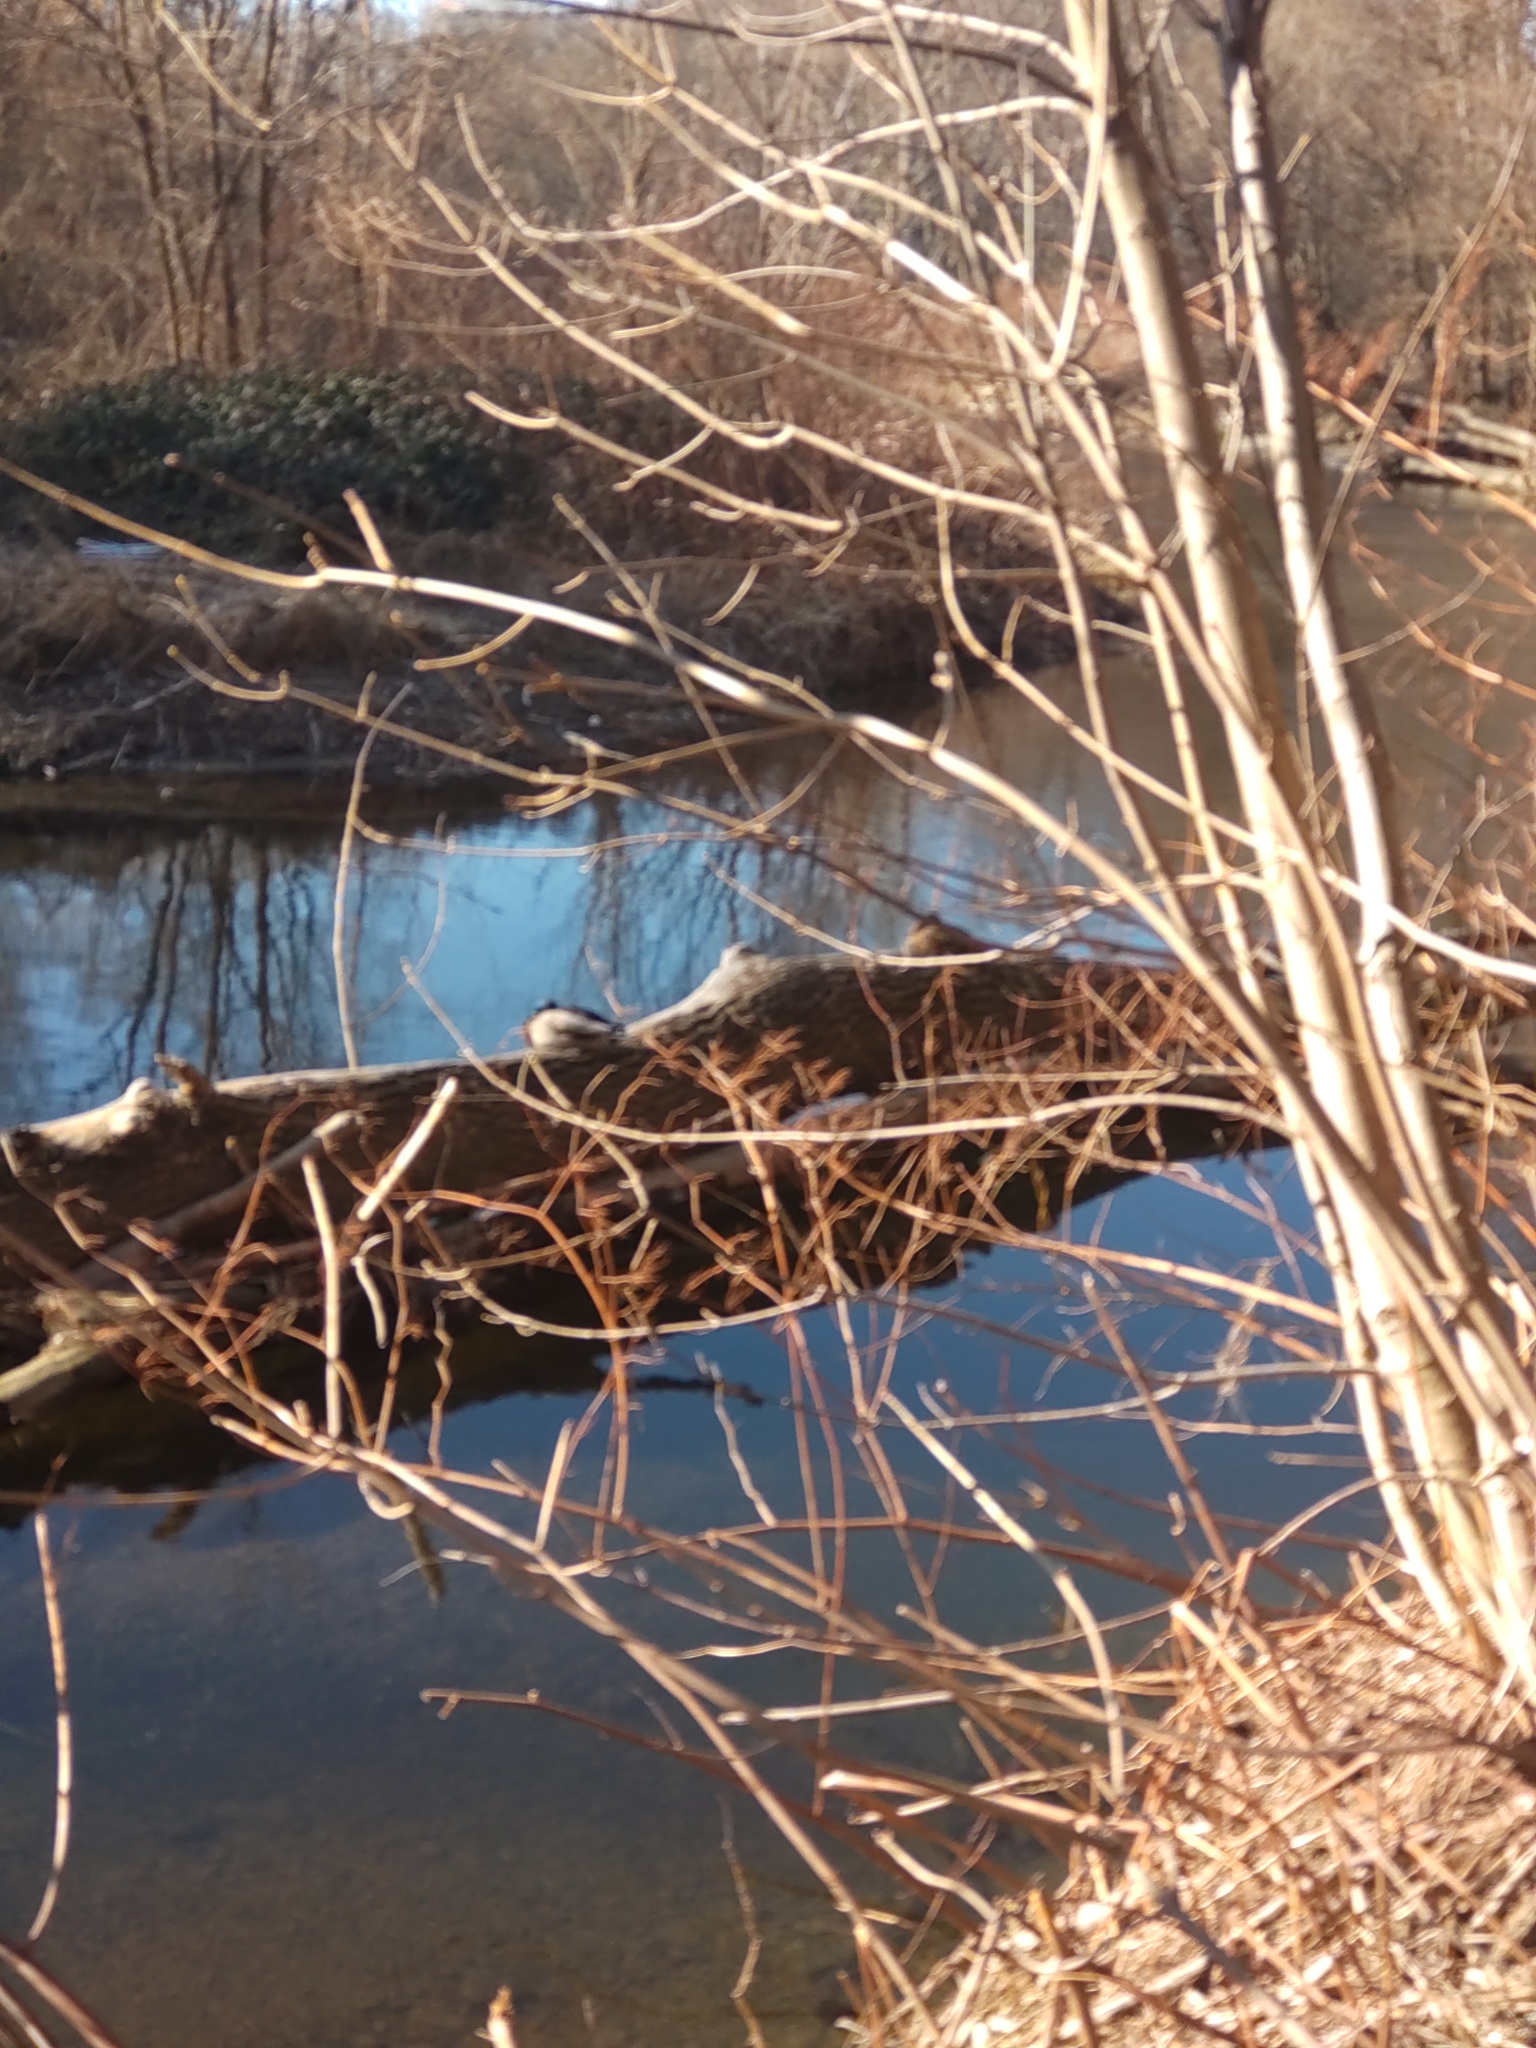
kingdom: Animalia
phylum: Chordata
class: Aves
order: Anseriformes
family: Anatidae
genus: Anas
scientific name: Anas platyrhynchos
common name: Mallard
